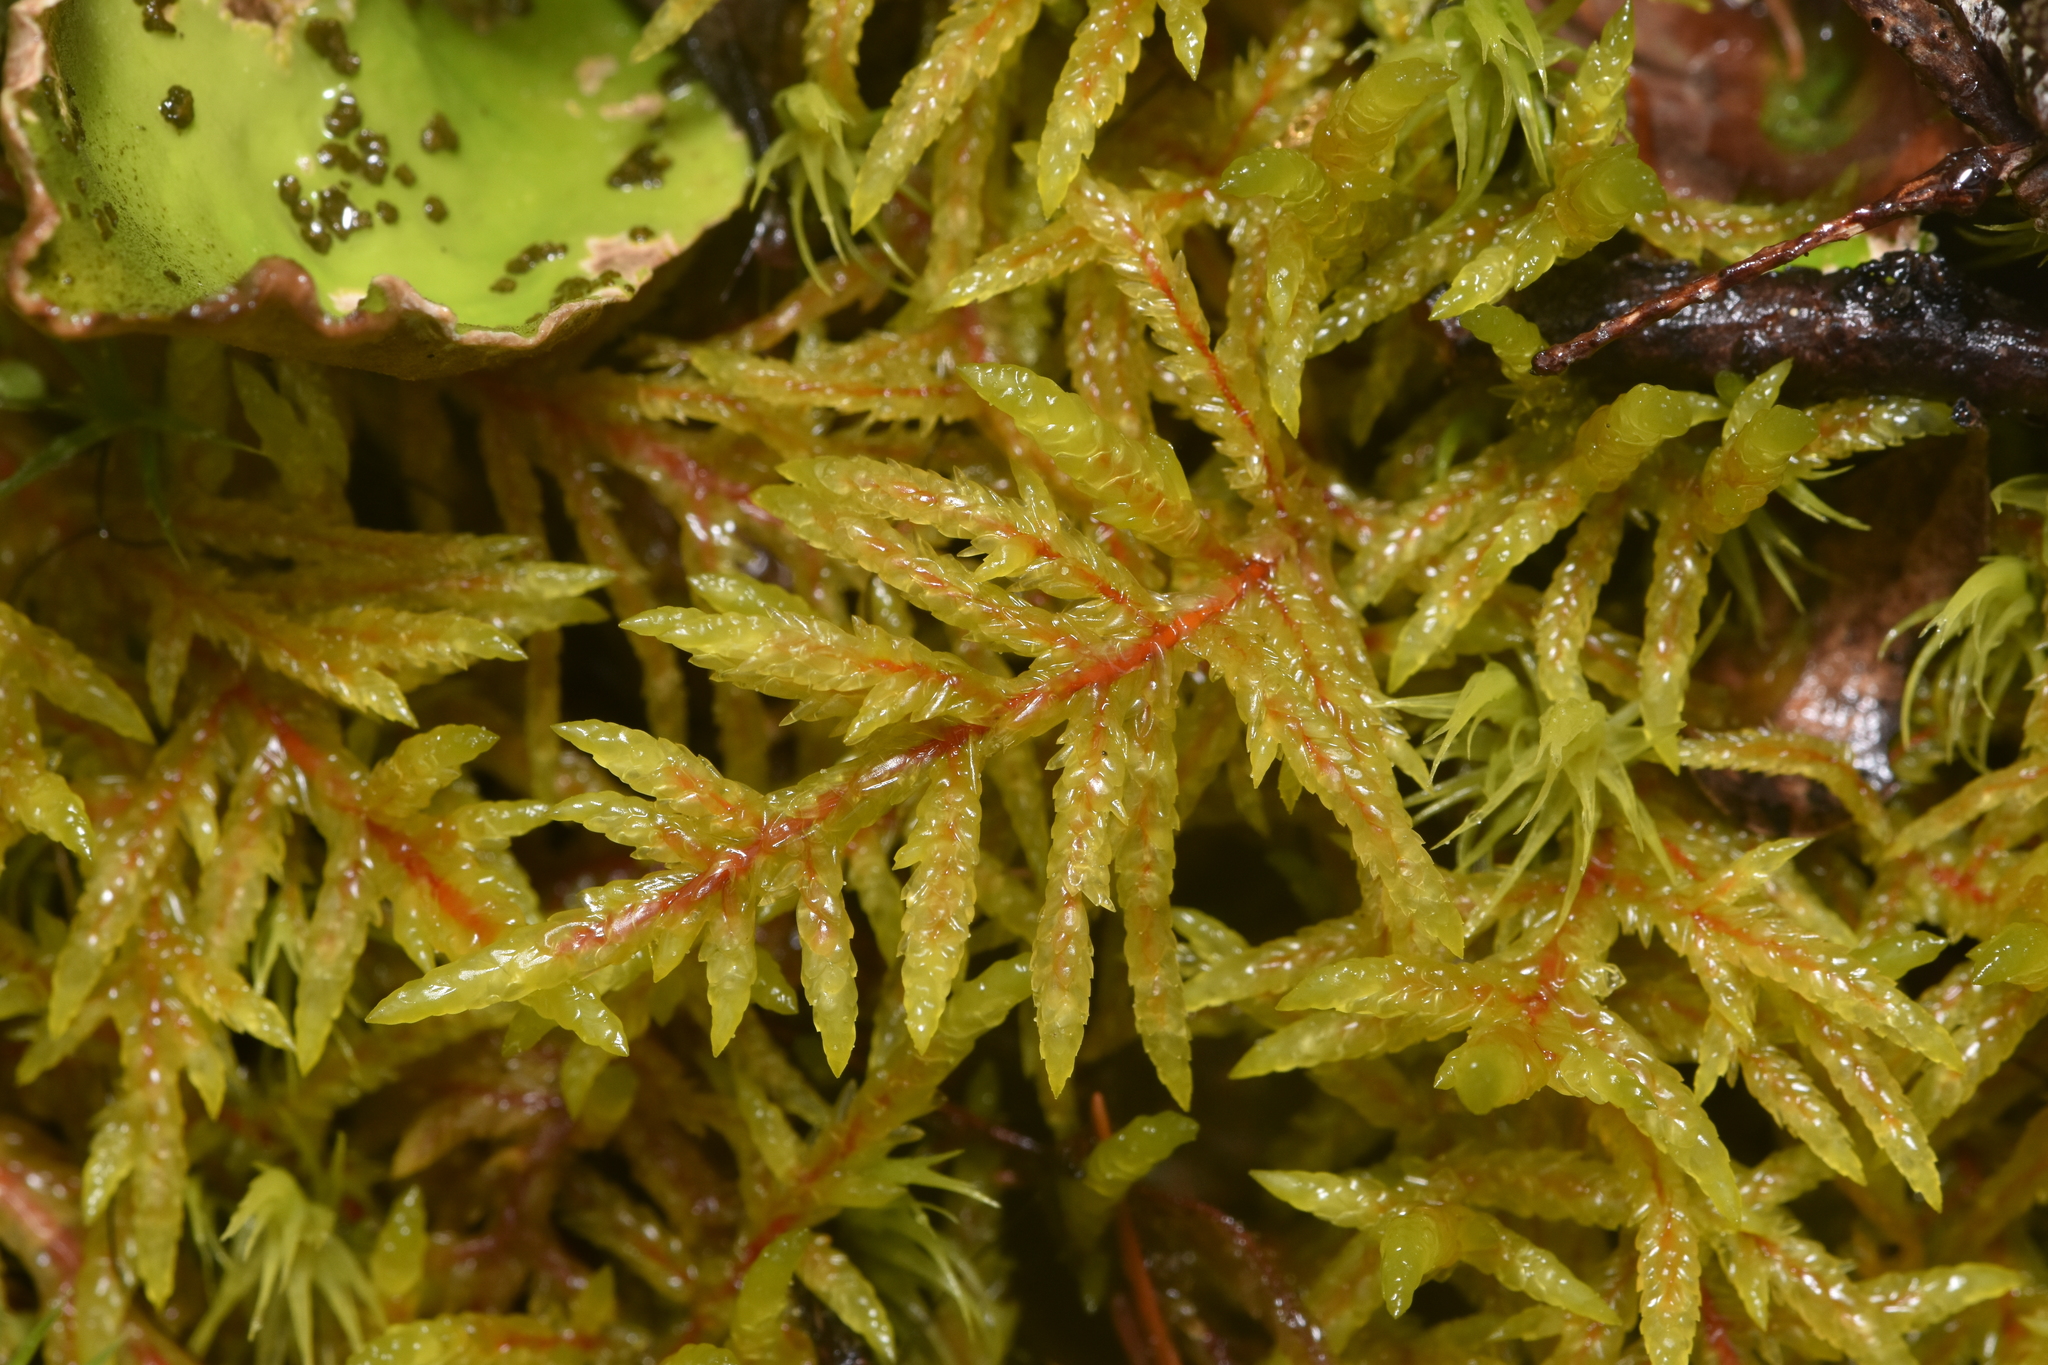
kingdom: Plantae
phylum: Bryophyta
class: Bryopsida
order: Hypnales
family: Hylocomiaceae
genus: Pleurozium
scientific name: Pleurozium schreberi
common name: Red-stemmed feather moss
